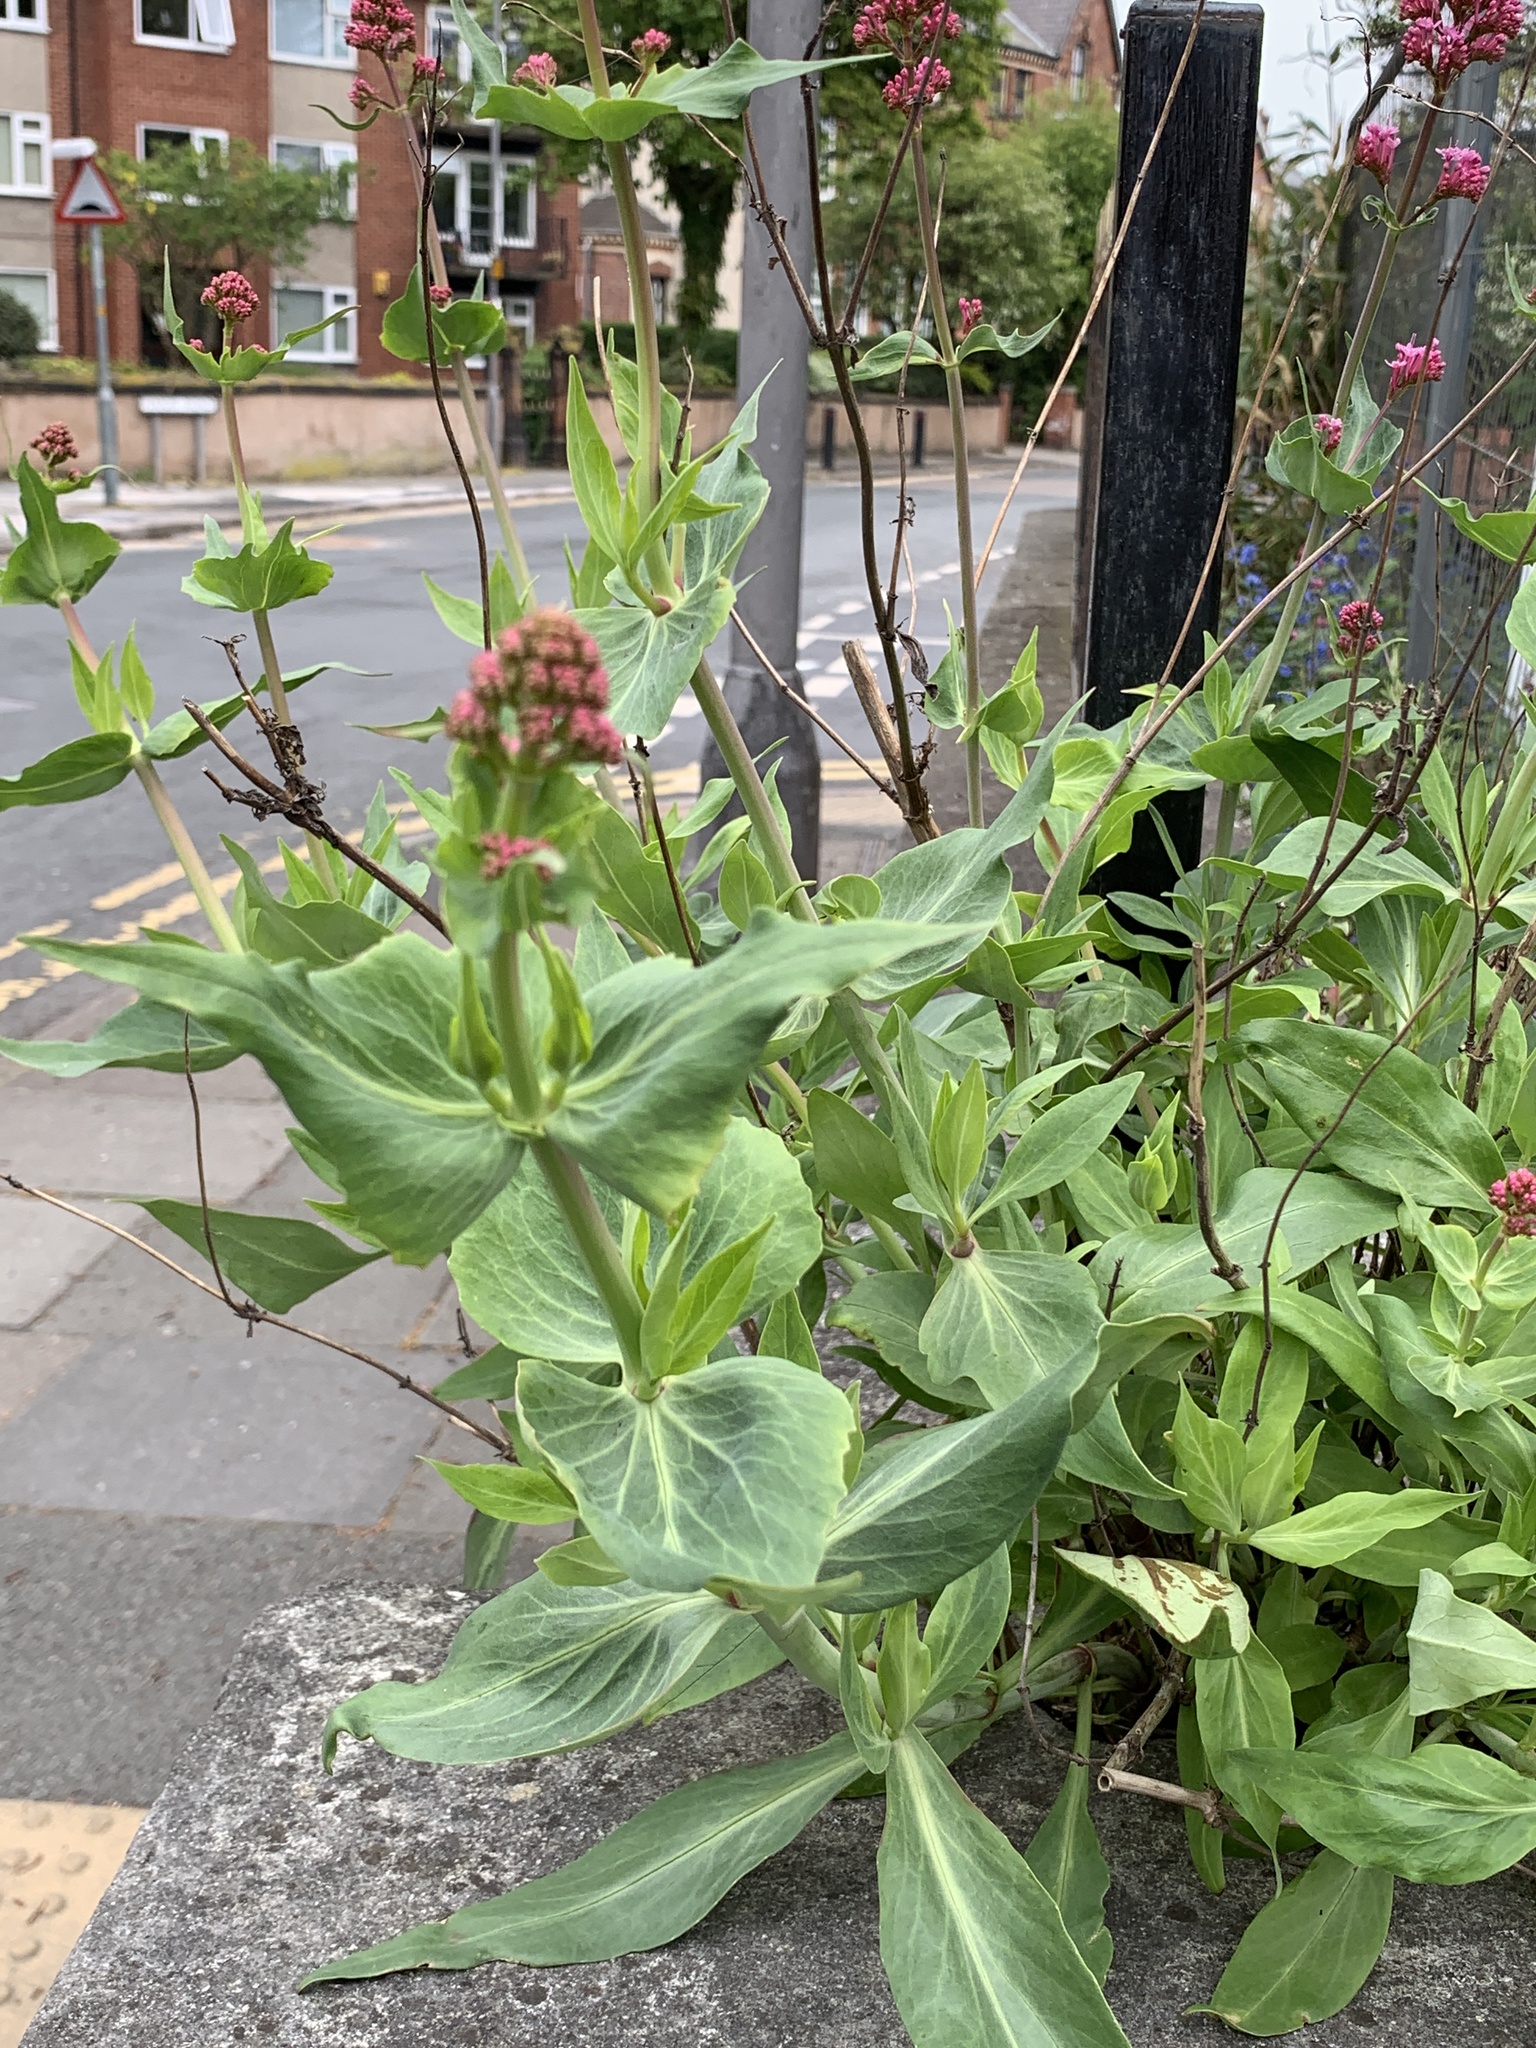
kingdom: Plantae
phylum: Tracheophyta
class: Magnoliopsida
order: Dipsacales
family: Caprifoliaceae
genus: Centranthus
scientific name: Centranthus ruber
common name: Red valerian
